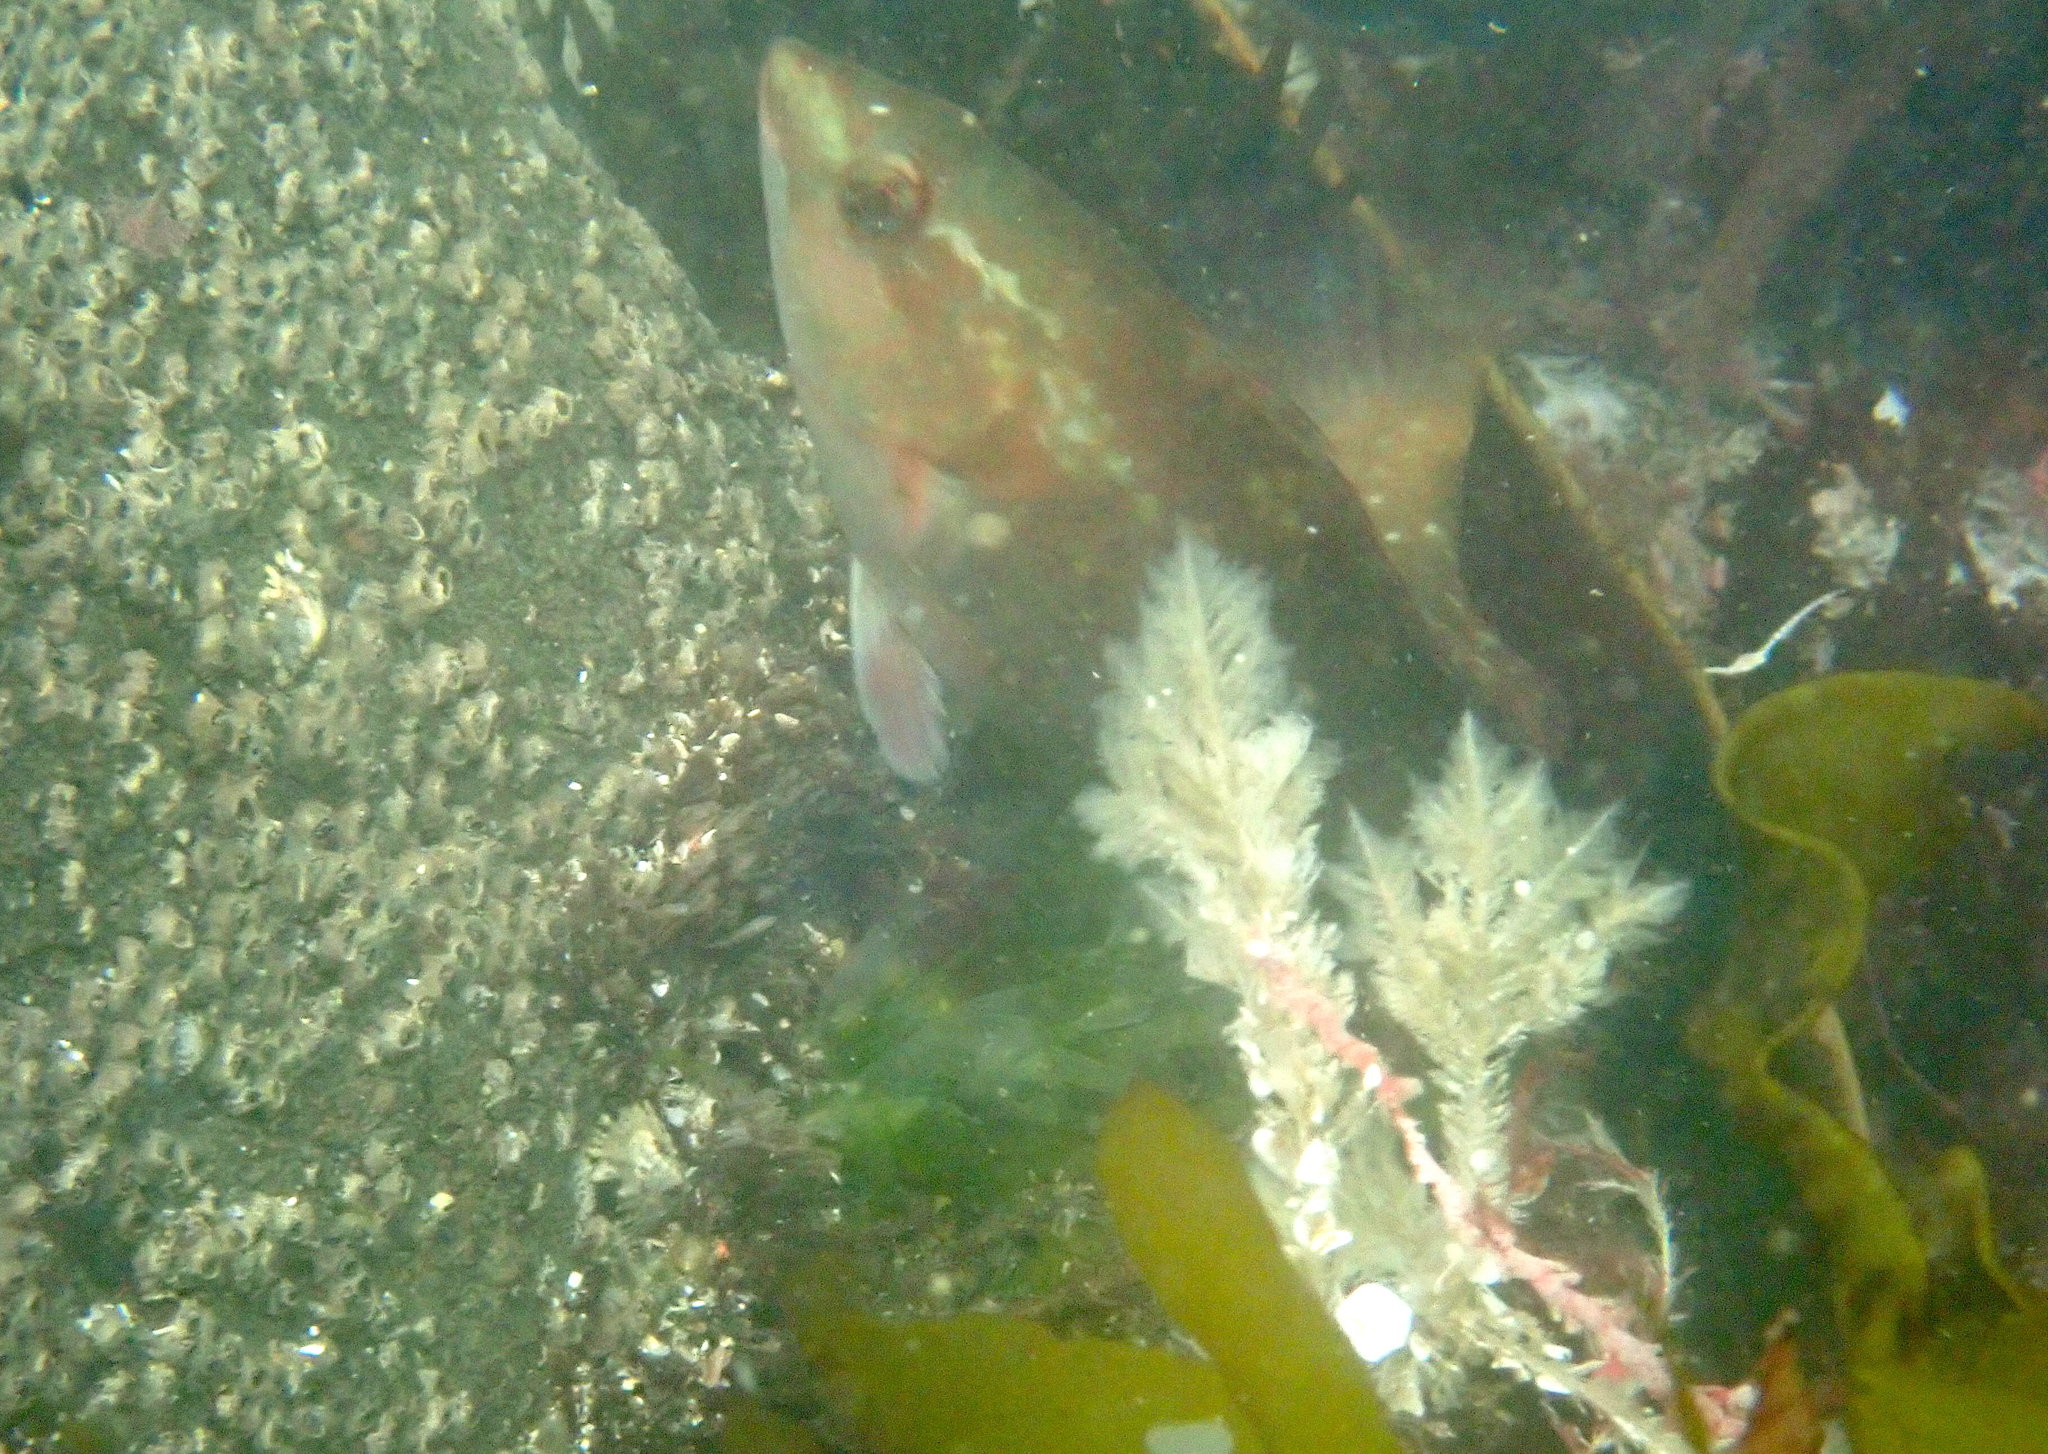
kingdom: Animalia
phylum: Chordata
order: Perciformes
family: Labridae
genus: Notolabrus
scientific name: Notolabrus fucicola
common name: Banded parrotfish
